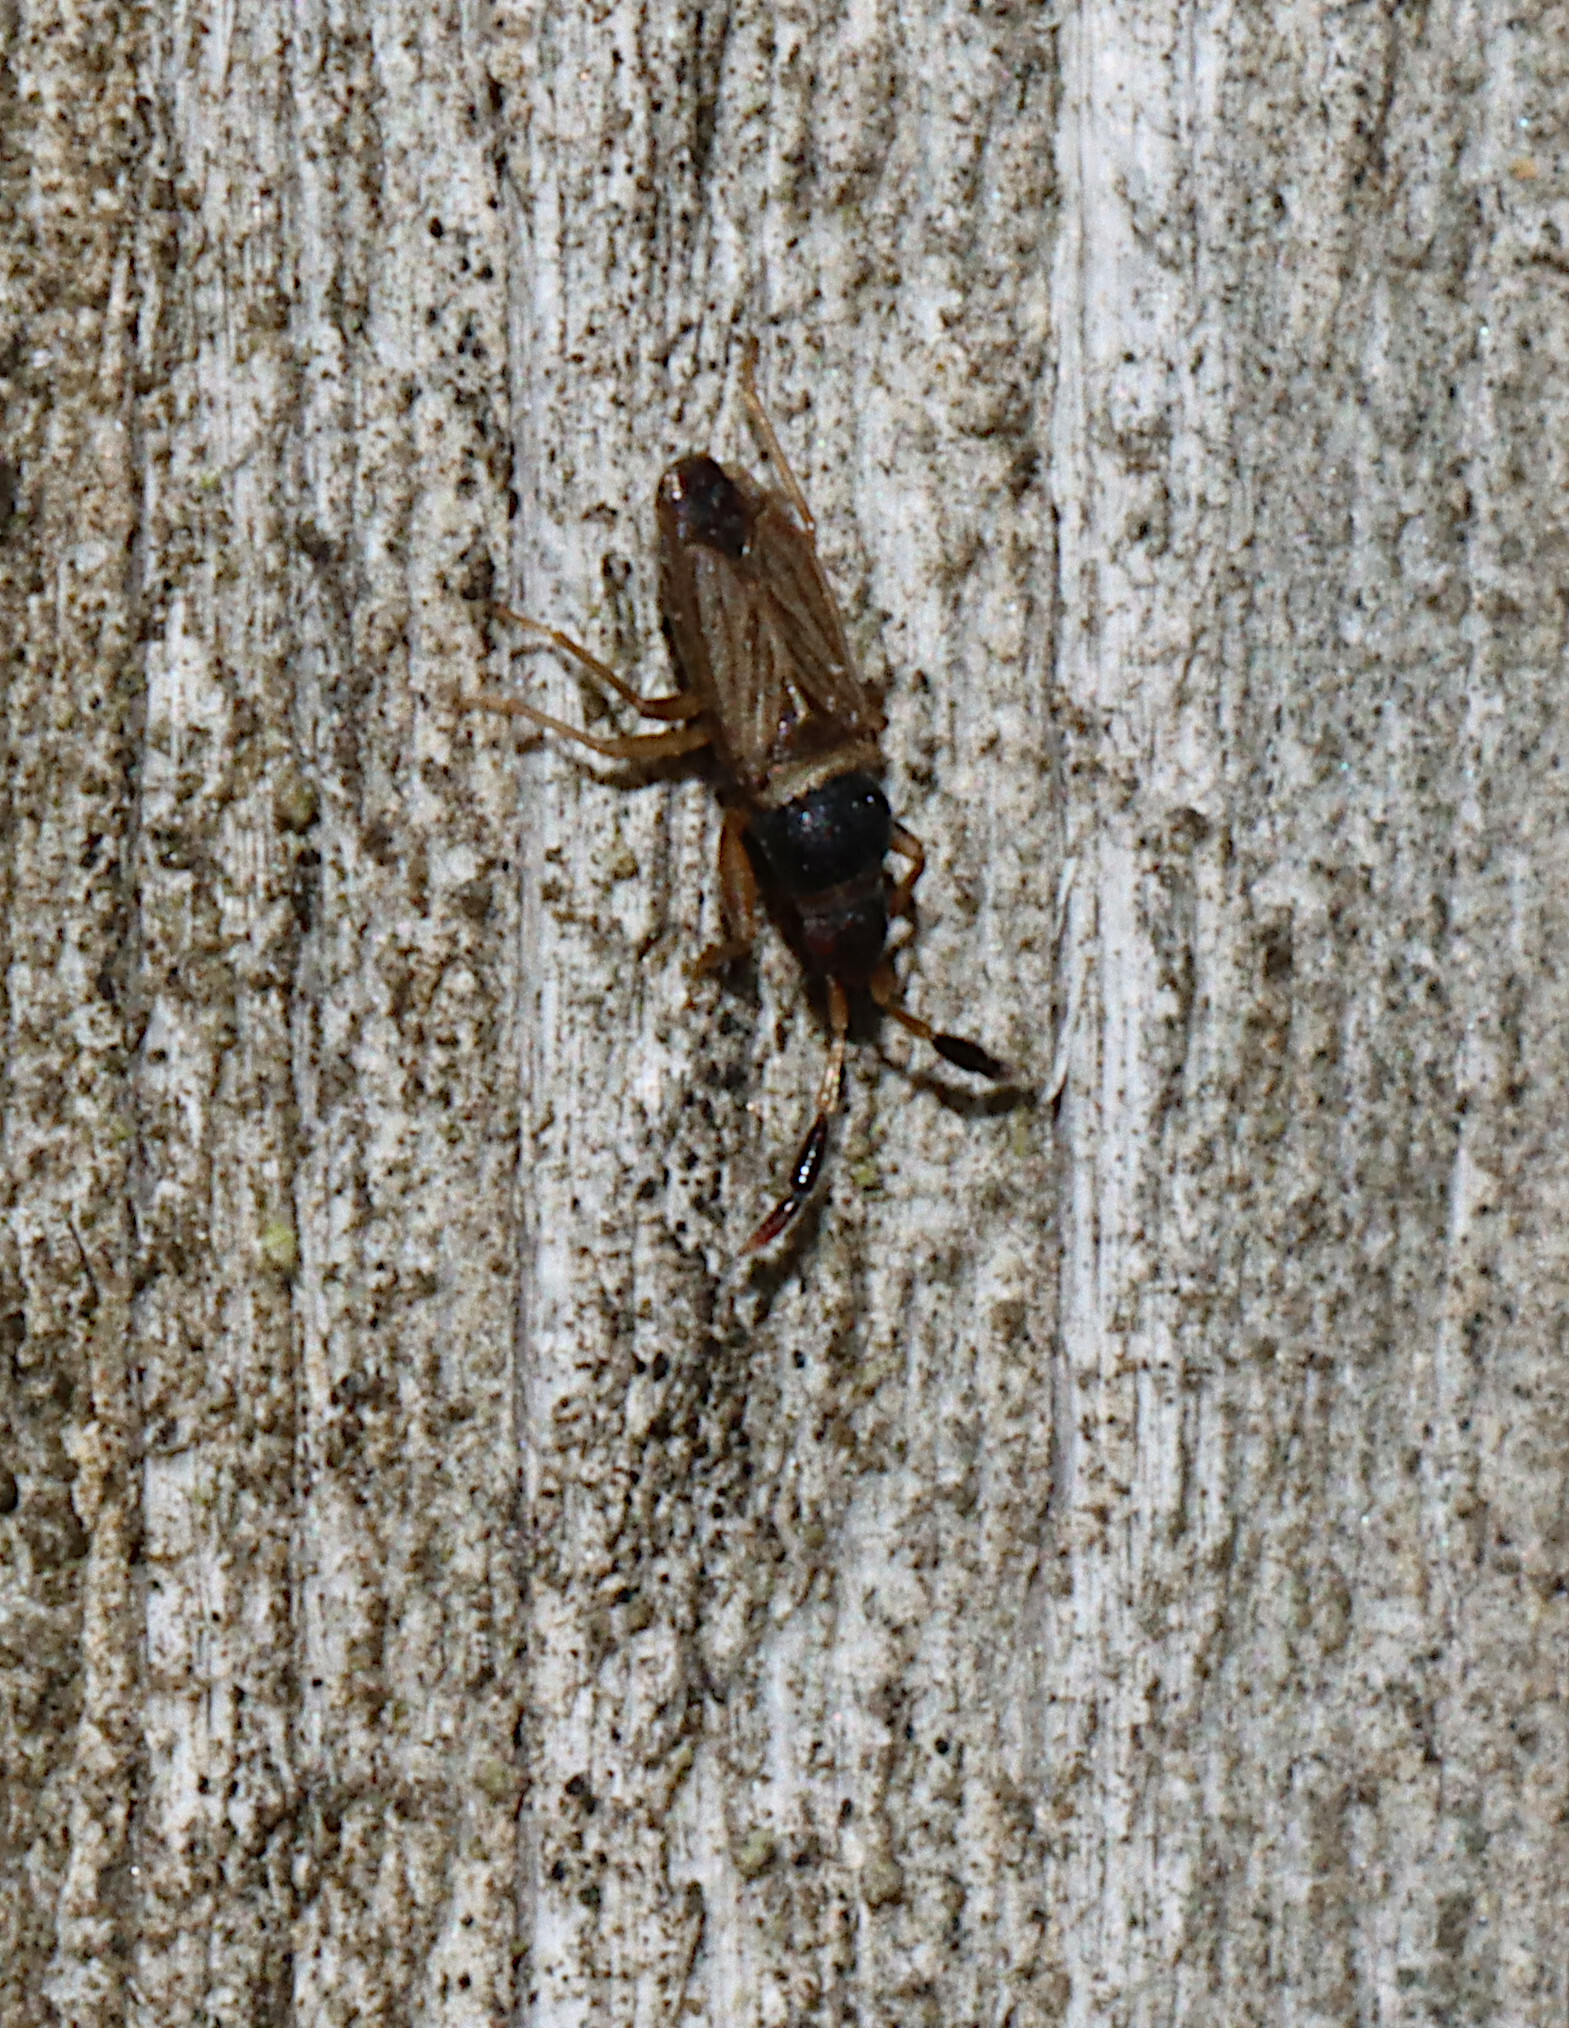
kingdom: Animalia
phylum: Arthropoda
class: Insecta
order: Hemiptera
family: Rhyparochromidae
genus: Ptochiomera
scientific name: Ptochiomera nodosa
